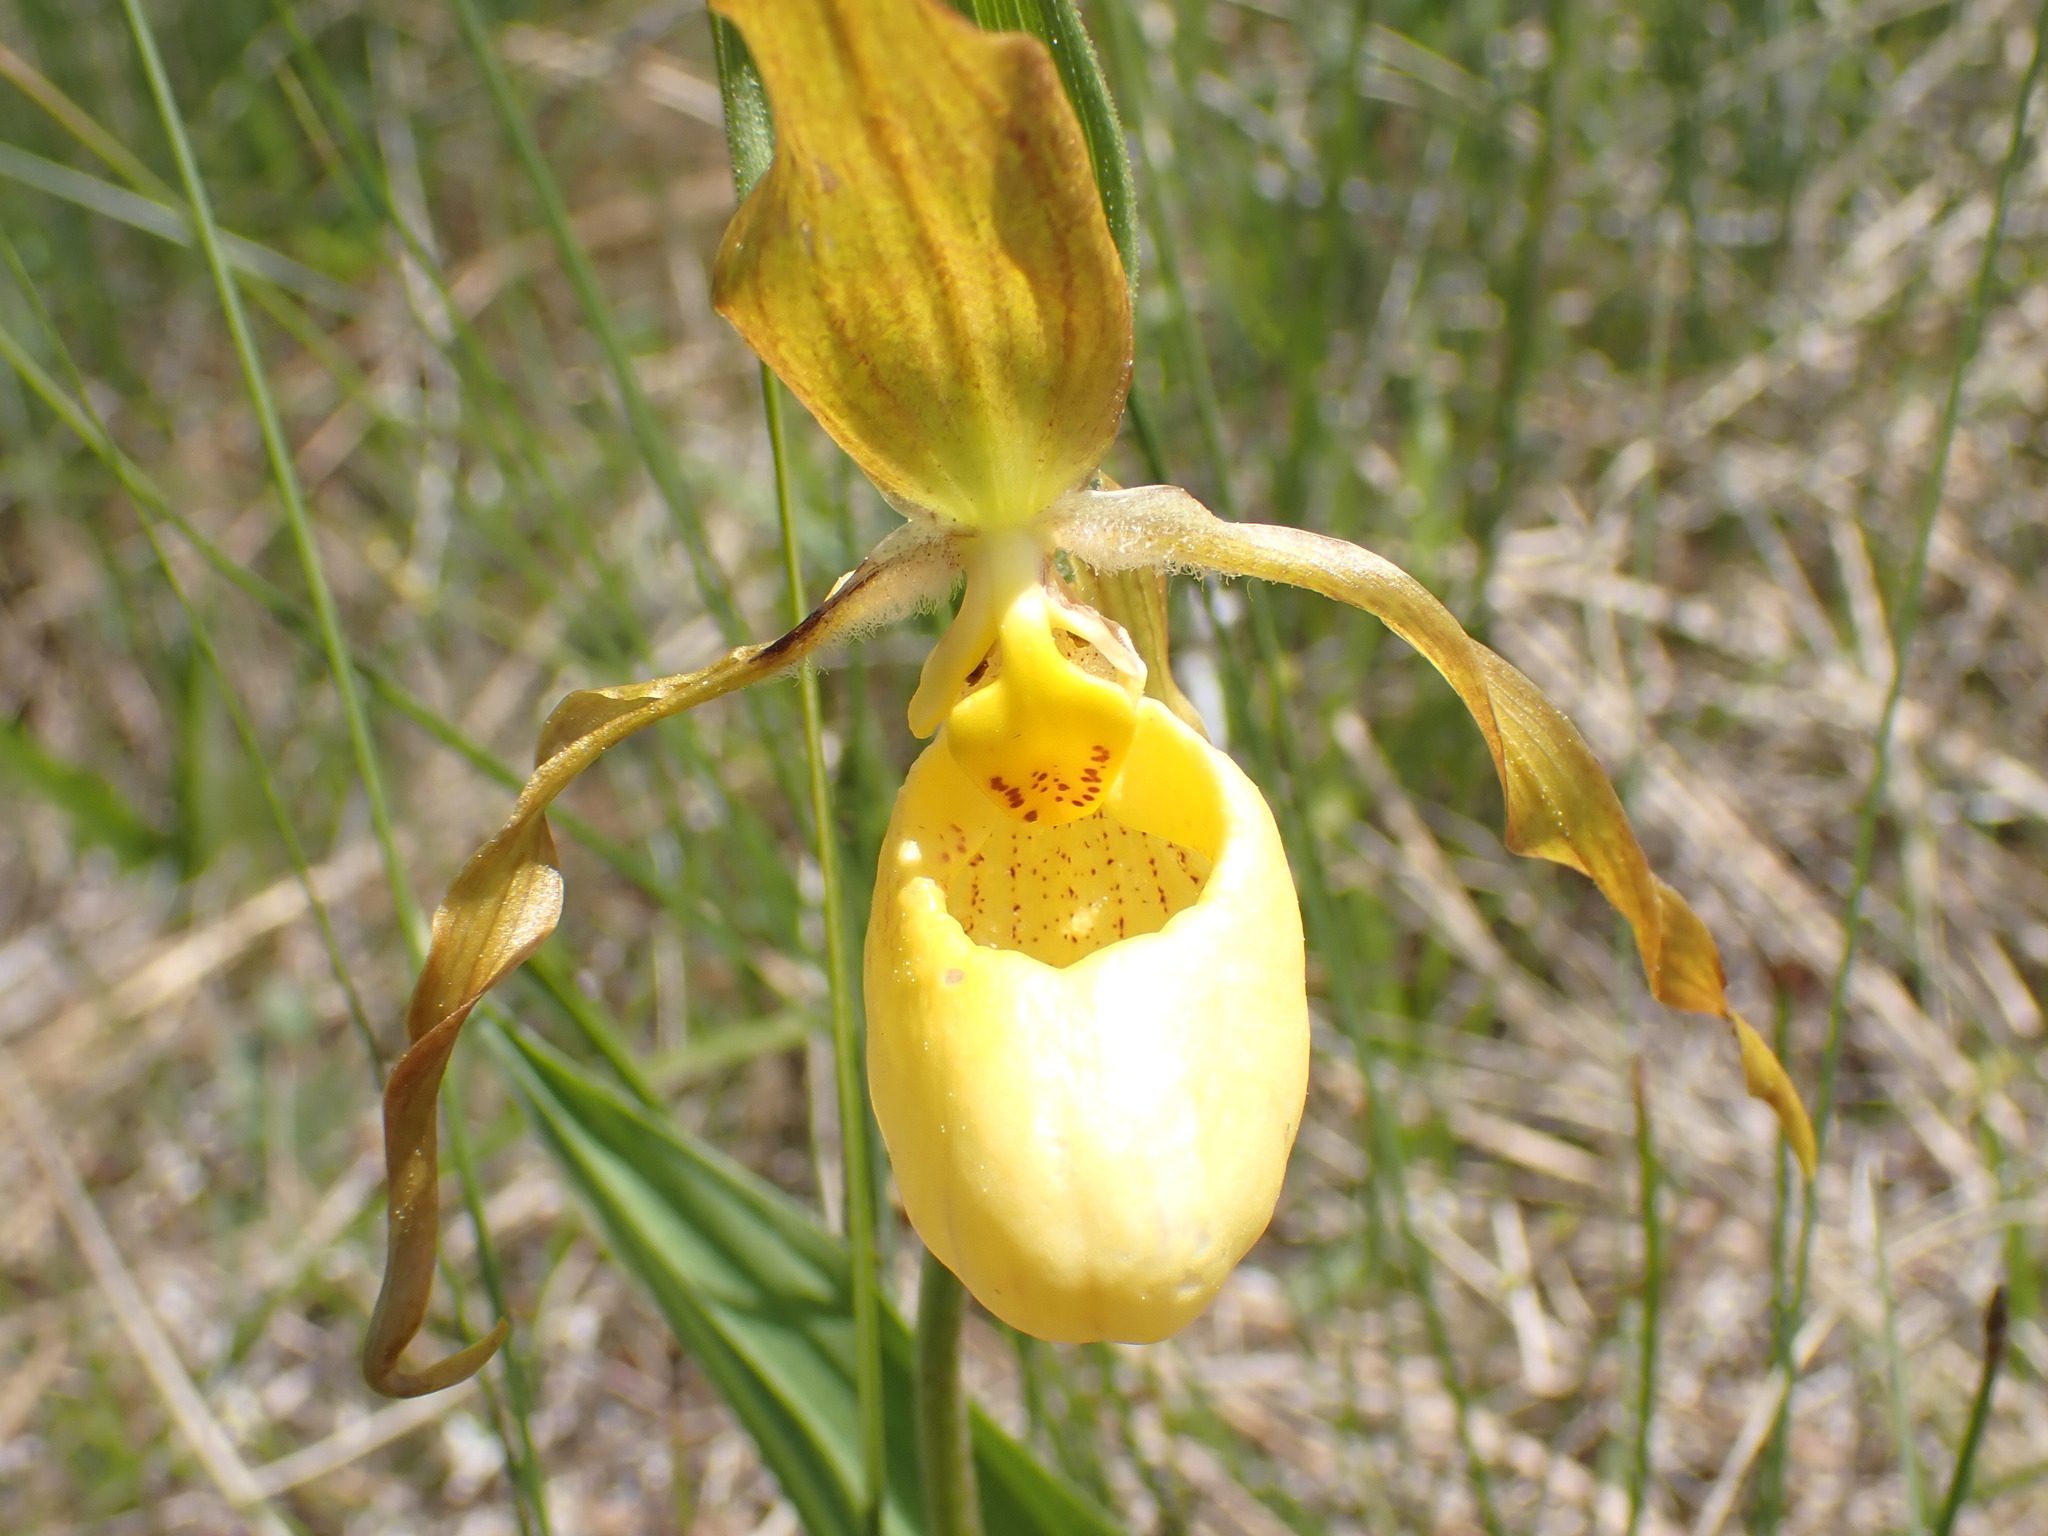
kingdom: Plantae
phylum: Tracheophyta
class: Liliopsida
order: Asparagales
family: Orchidaceae
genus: Cypripedium
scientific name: Cypripedium parviflorum
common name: American yellow lady's-slipper
